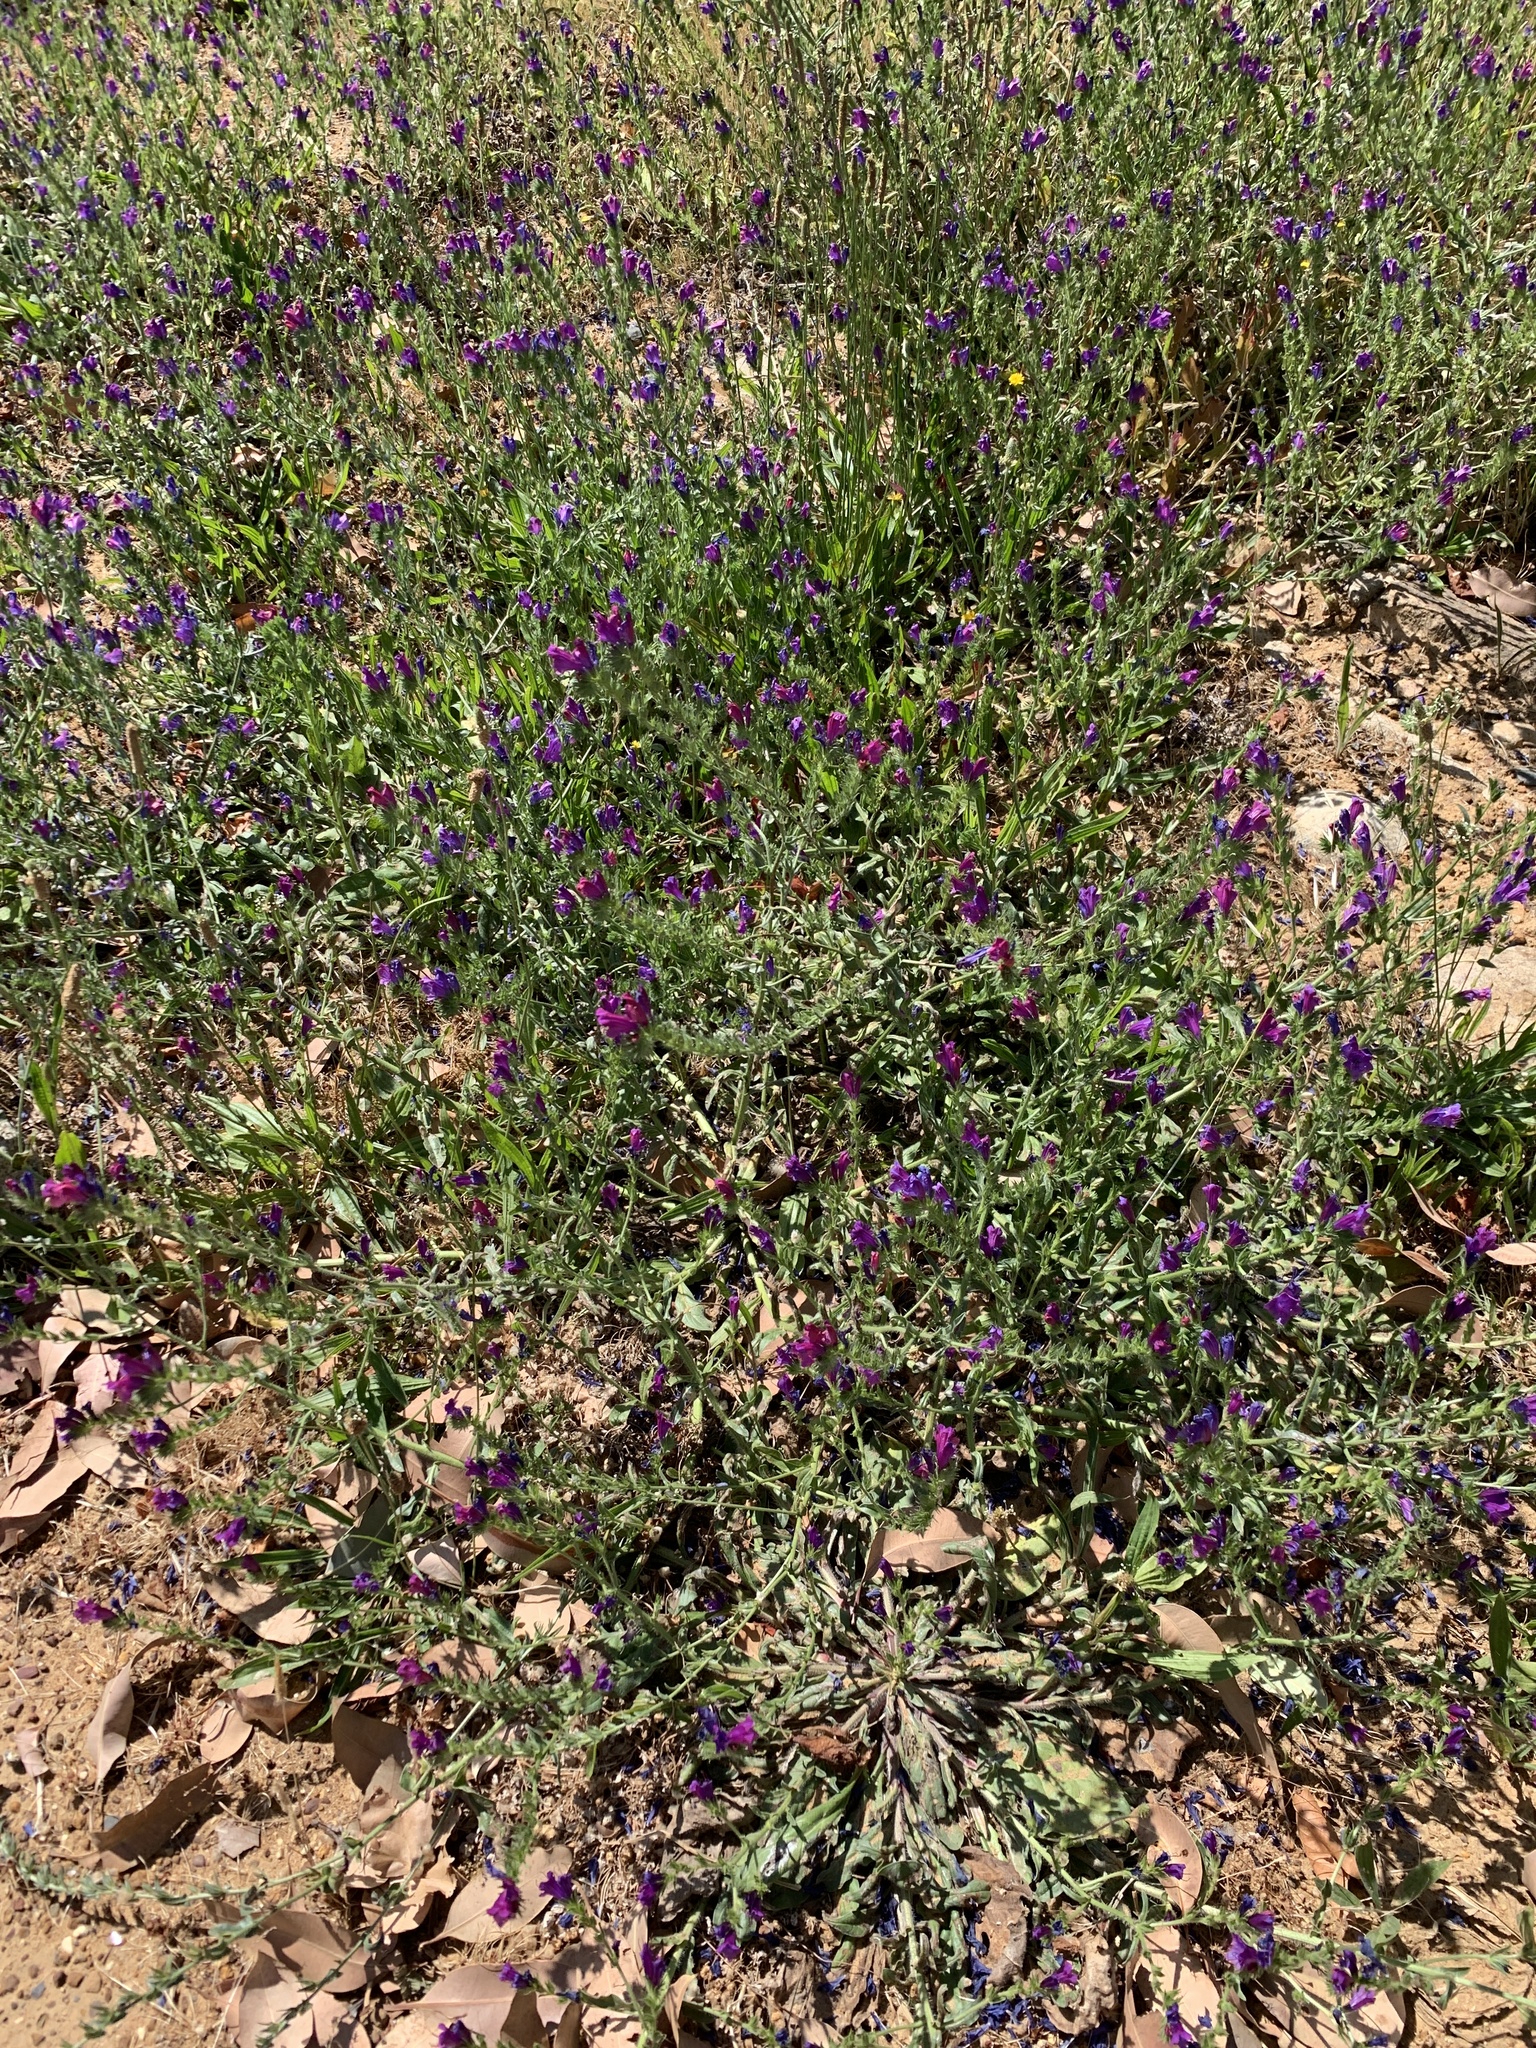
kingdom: Plantae
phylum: Tracheophyta
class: Magnoliopsida
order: Boraginales
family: Boraginaceae
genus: Echium
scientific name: Echium plantagineum
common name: Purple viper's-bugloss
